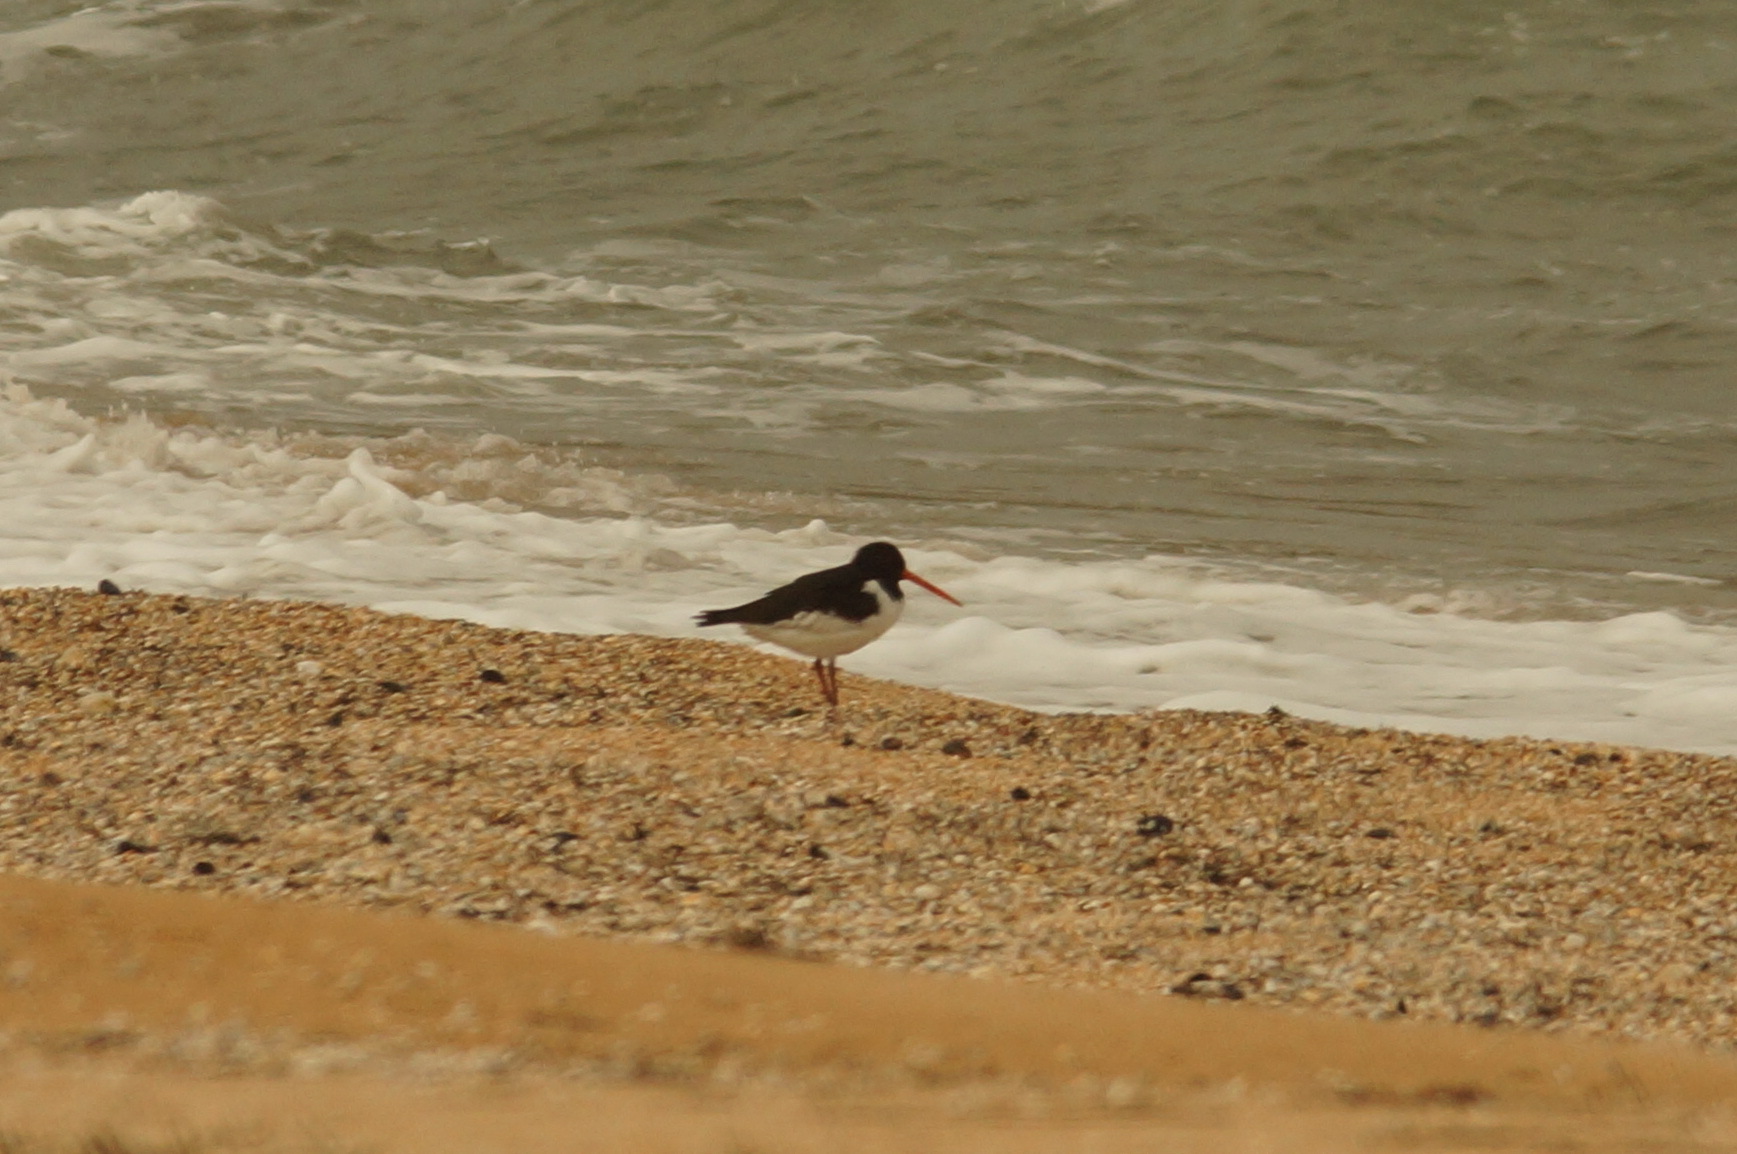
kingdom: Animalia
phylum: Chordata
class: Aves
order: Charadriiformes
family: Haematopodidae
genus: Haematopus
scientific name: Haematopus ostralegus
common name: Eurasian oystercatcher
